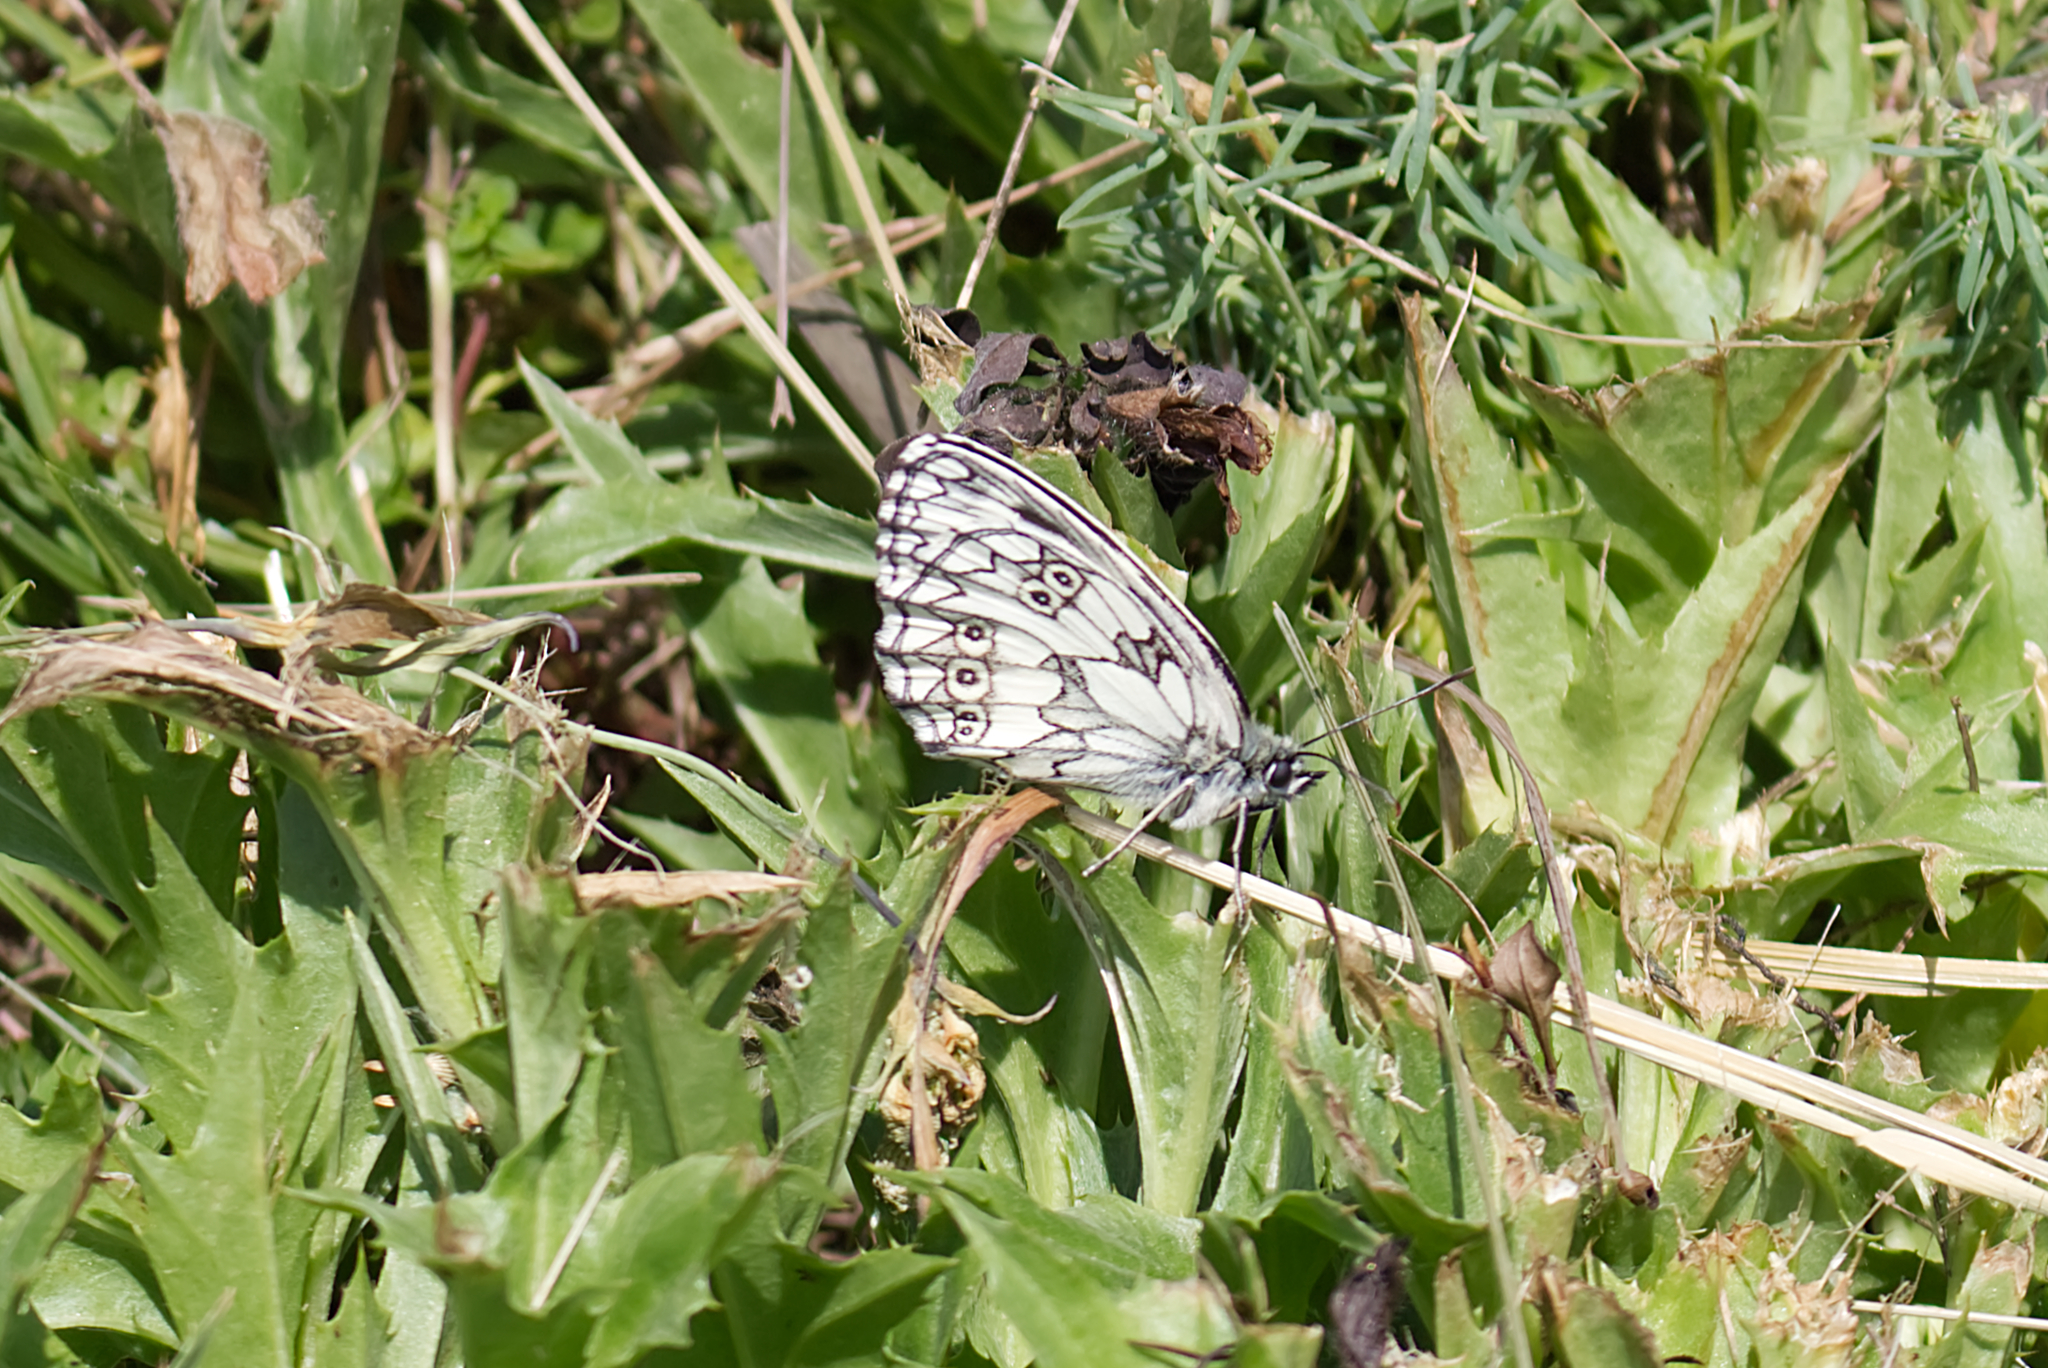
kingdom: Animalia
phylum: Arthropoda
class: Insecta
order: Lepidoptera
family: Nymphalidae
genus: Melanargia
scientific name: Melanargia galathea
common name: Marbled white
